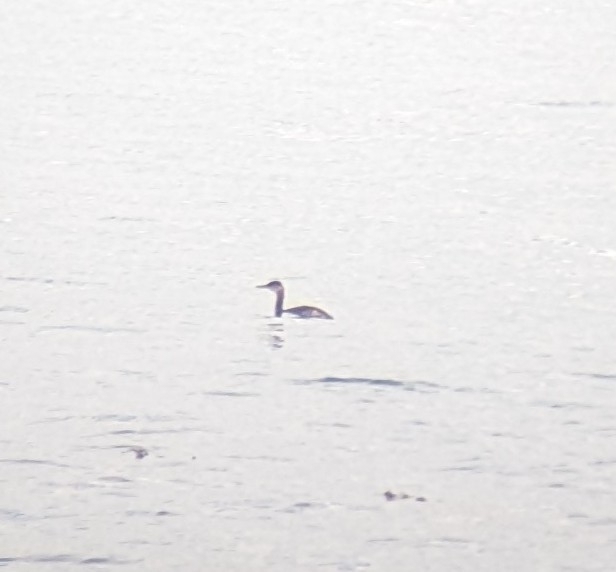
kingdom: Animalia
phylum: Chordata
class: Aves
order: Podicipediformes
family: Podicipedidae
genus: Podiceps
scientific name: Podiceps grisegena
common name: Red-necked grebe
